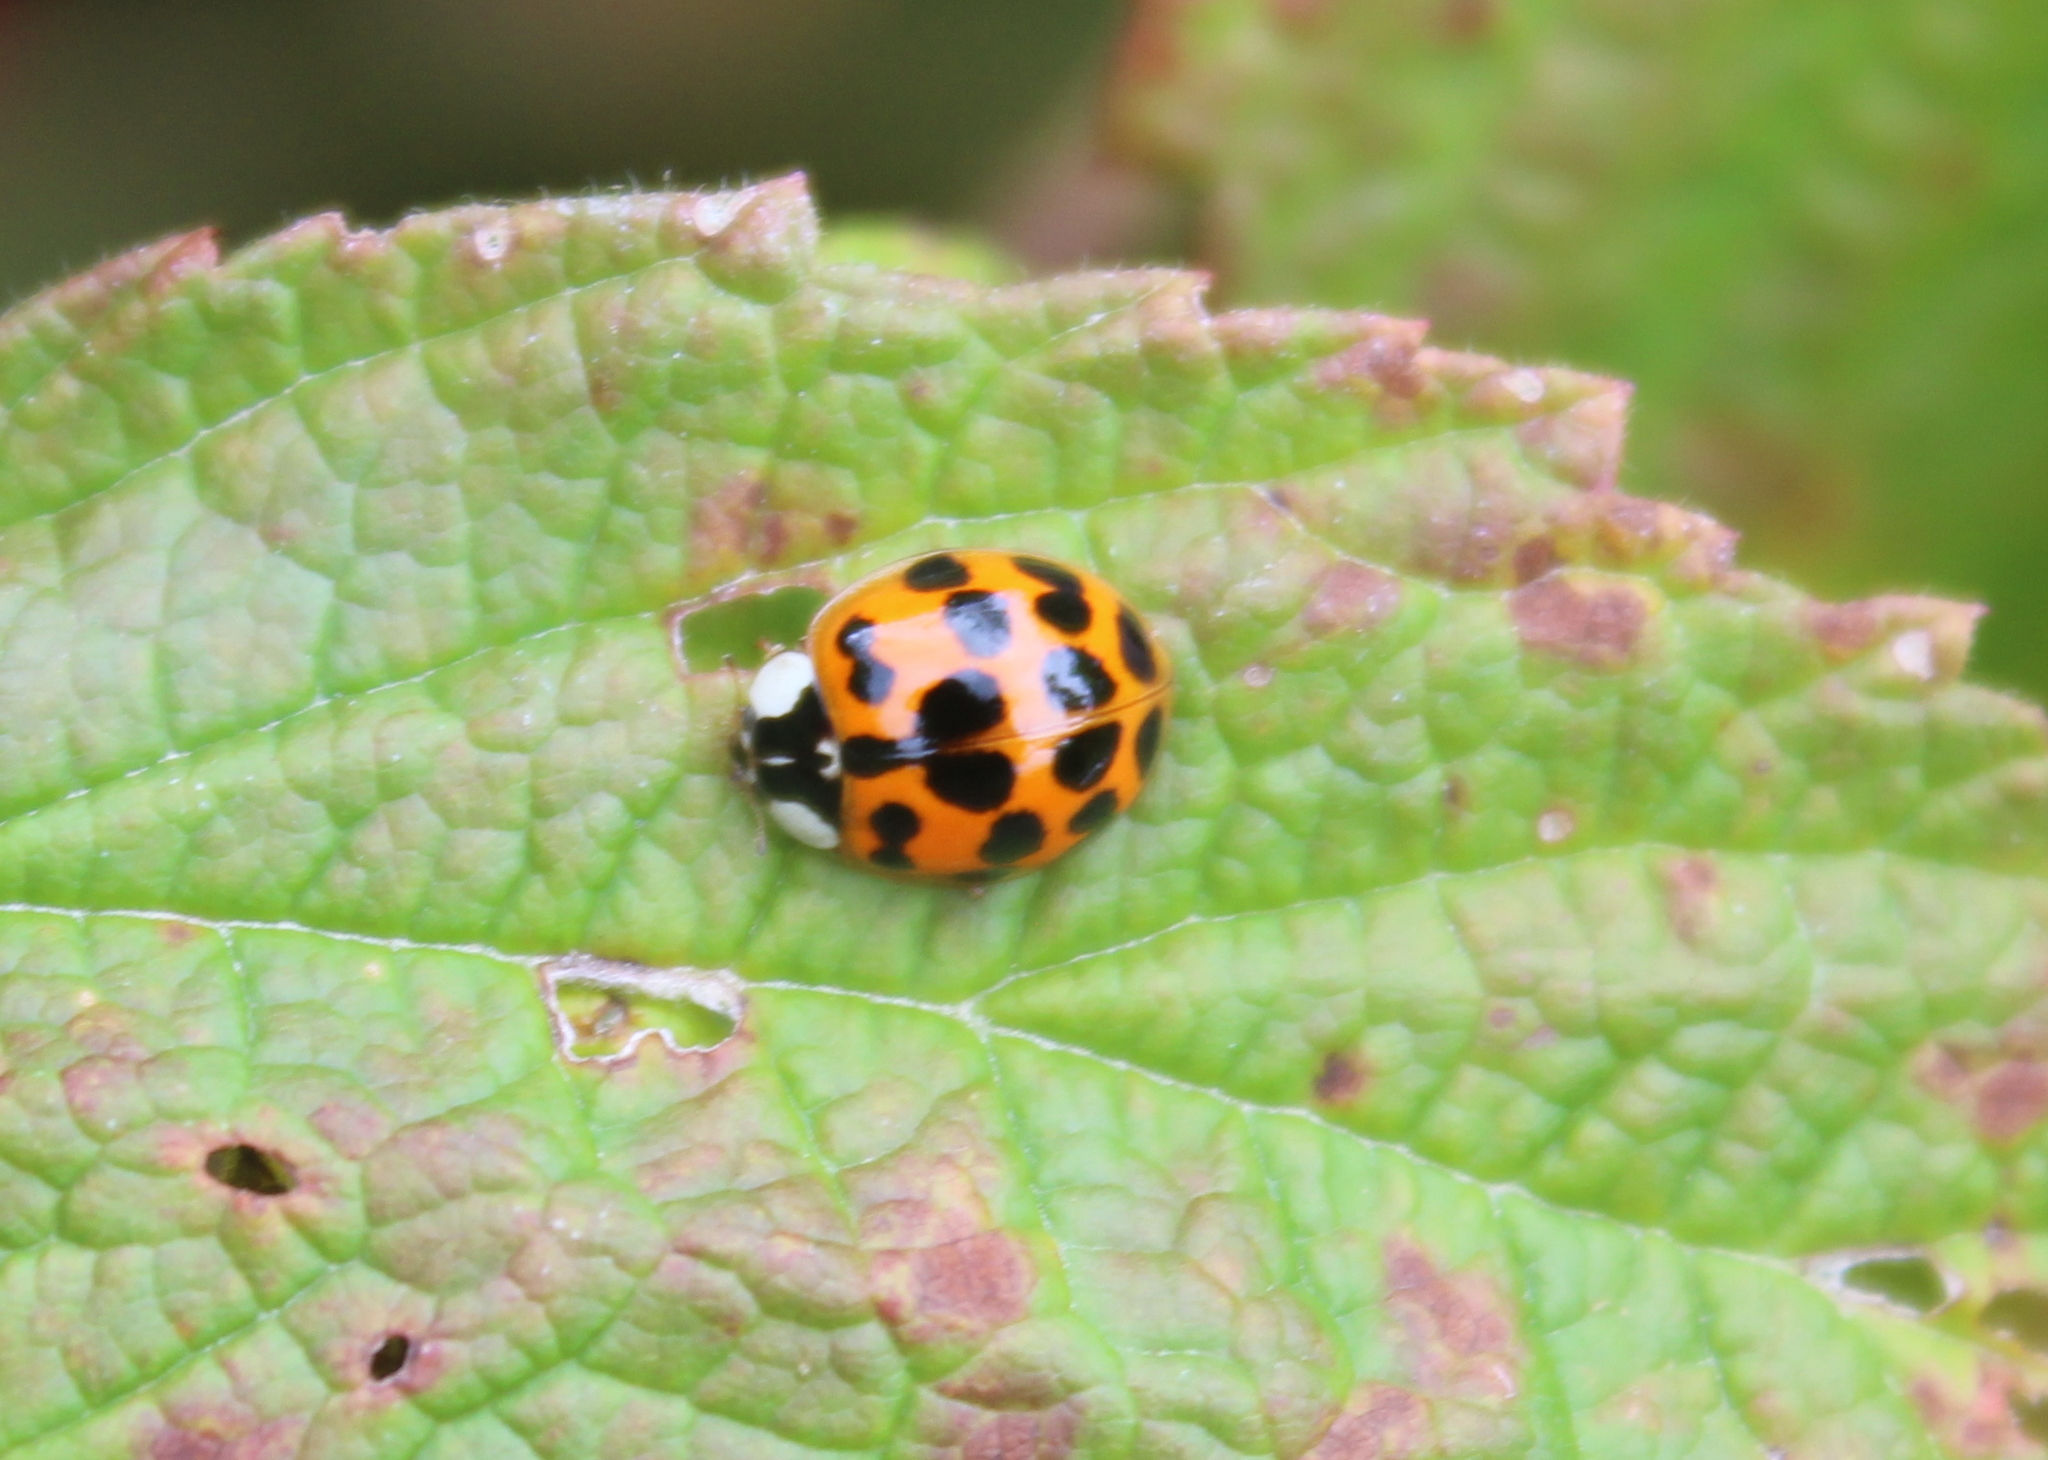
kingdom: Animalia
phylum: Arthropoda
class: Insecta
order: Coleoptera
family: Coccinellidae
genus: Harmonia
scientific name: Harmonia axyridis
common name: Harlequin ladybird
